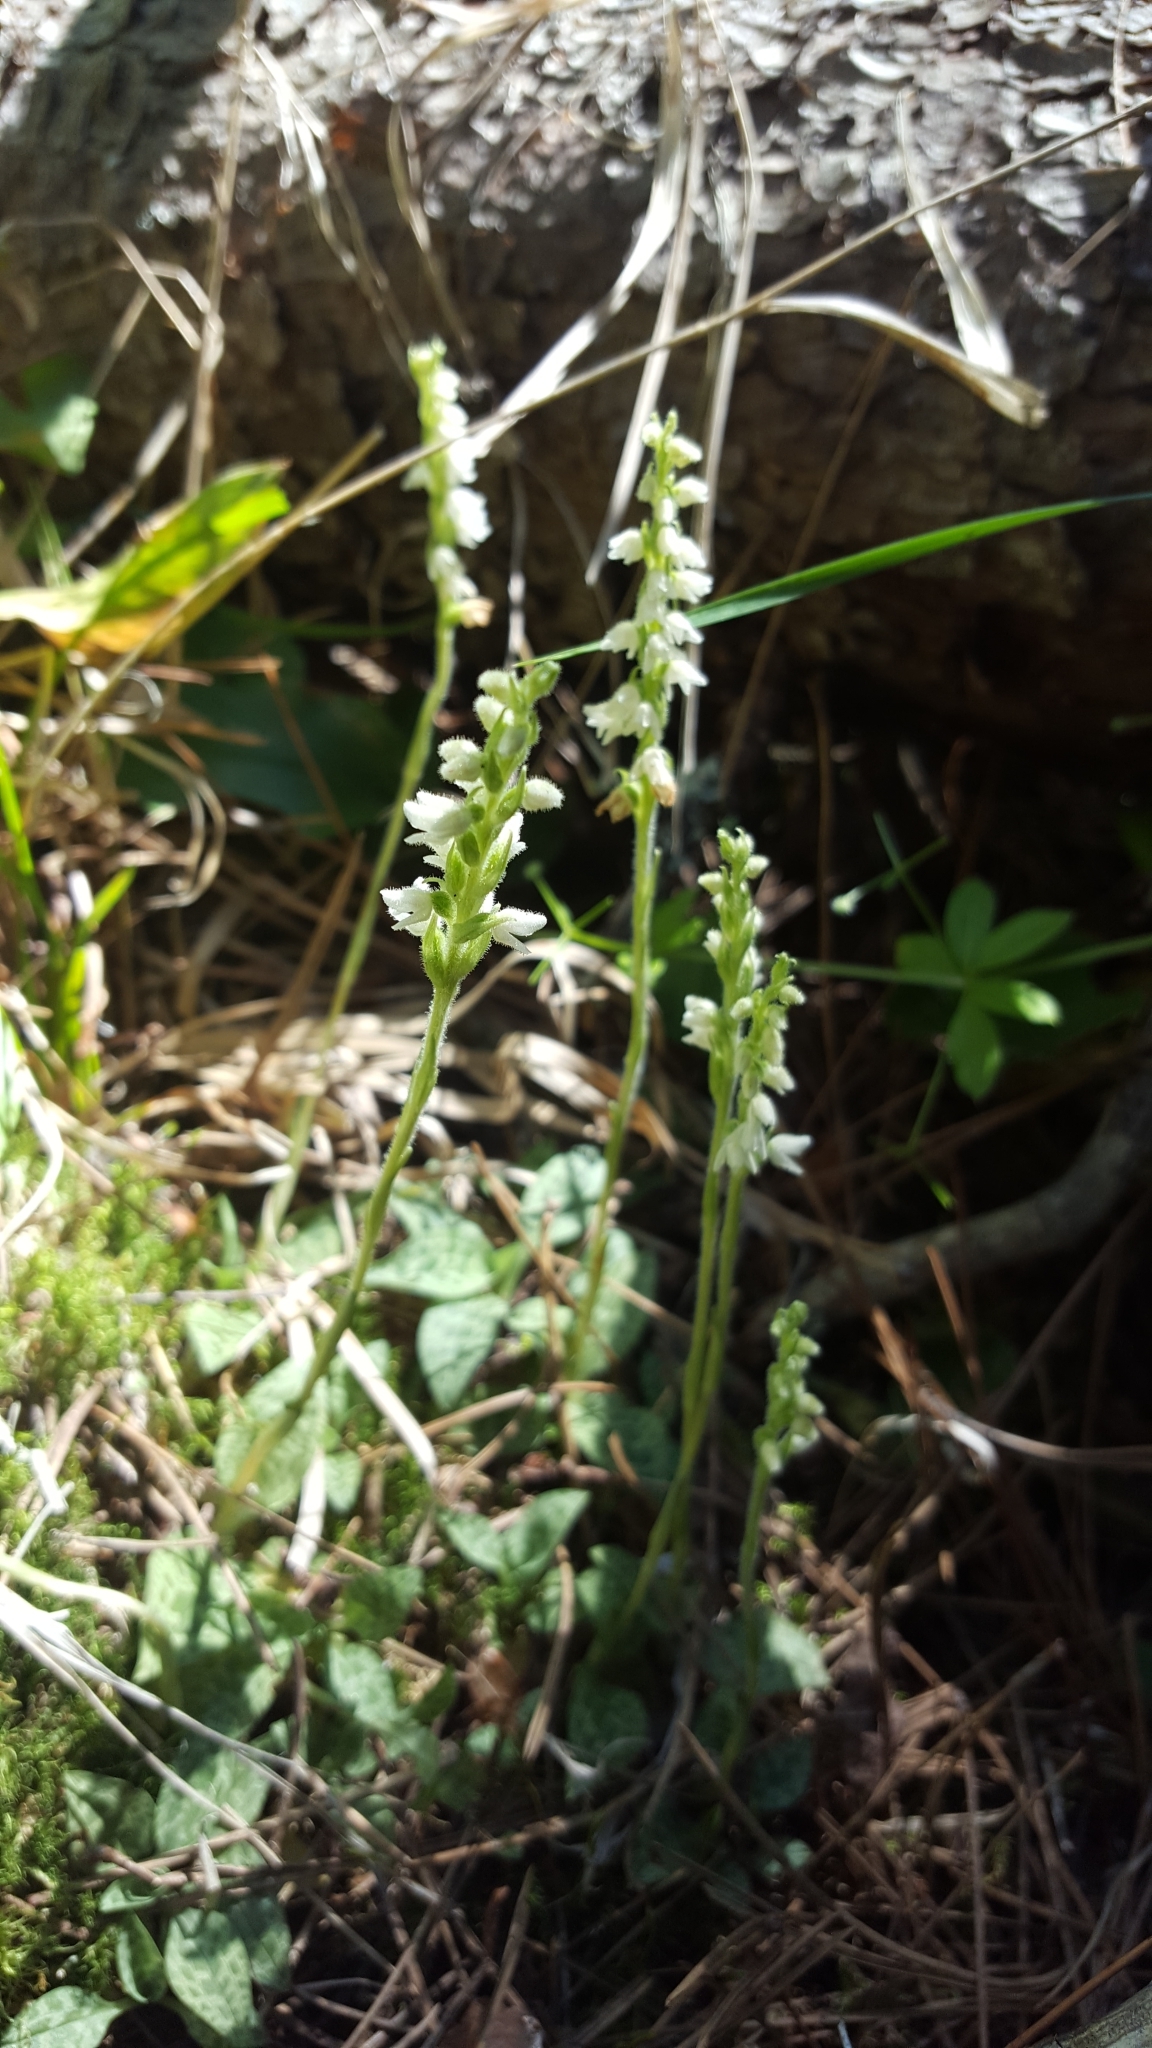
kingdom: Plantae
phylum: Tracheophyta
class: Liliopsida
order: Asparagales
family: Orchidaceae
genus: Goodyera
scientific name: Goodyera repens
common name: Creeping lady's-tresses
